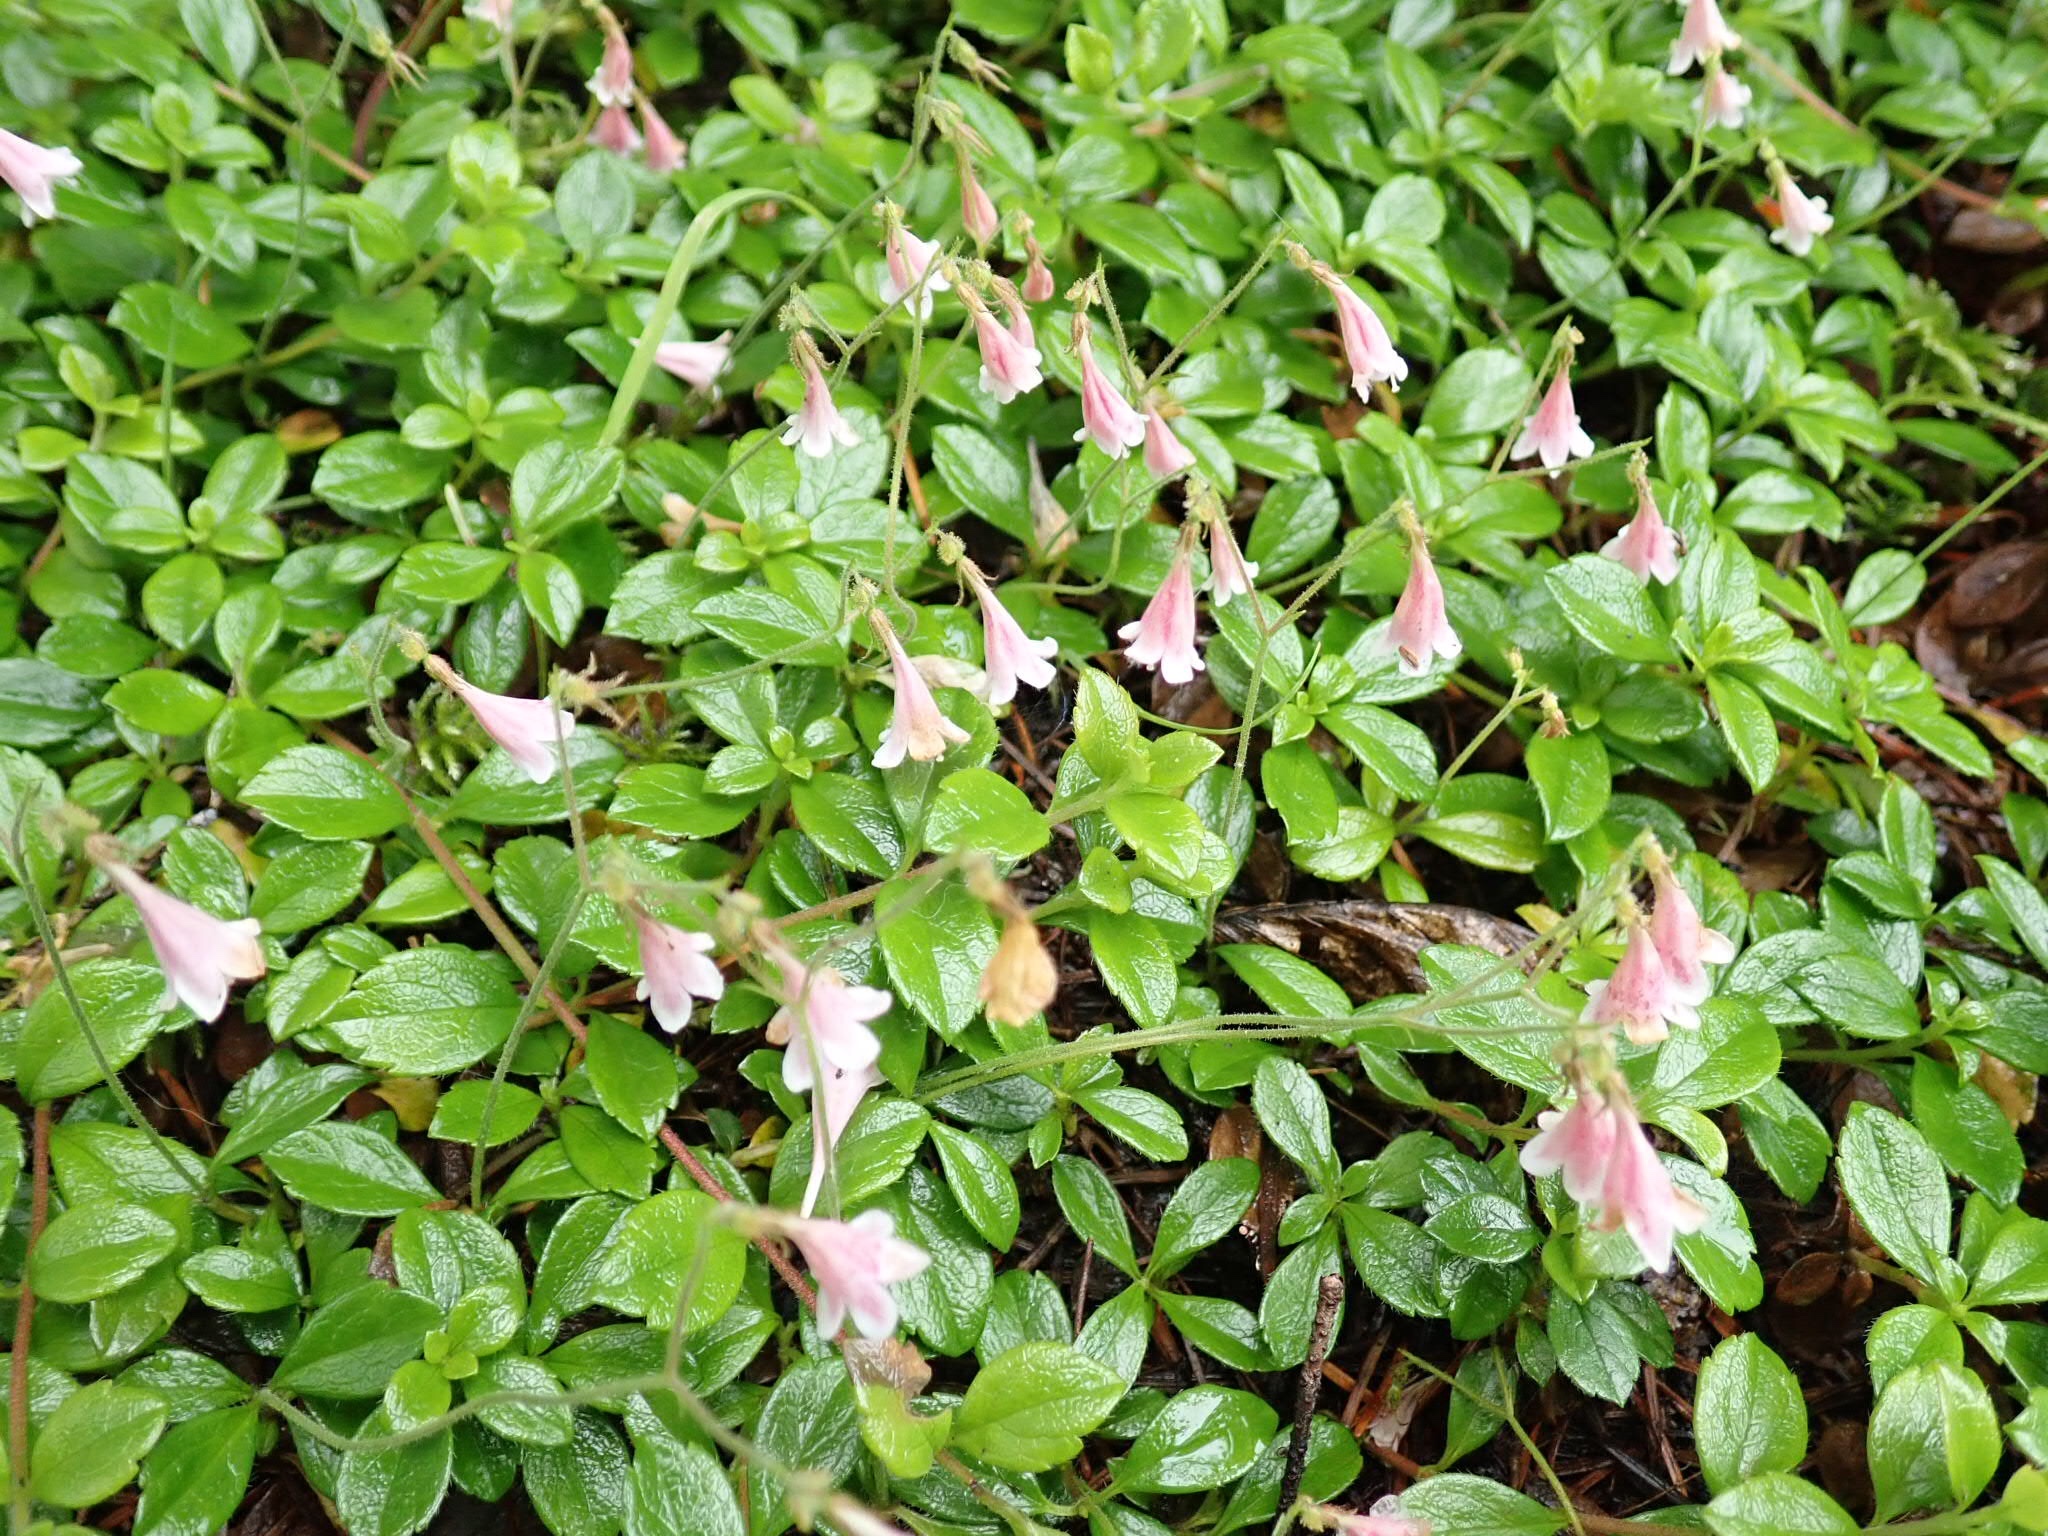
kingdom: Plantae
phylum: Tracheophyta
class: Magnoliopsida
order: Dipsacales
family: Caprifoliaceae
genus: Linnaea
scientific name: Linnaea borealis
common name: Twinflower
